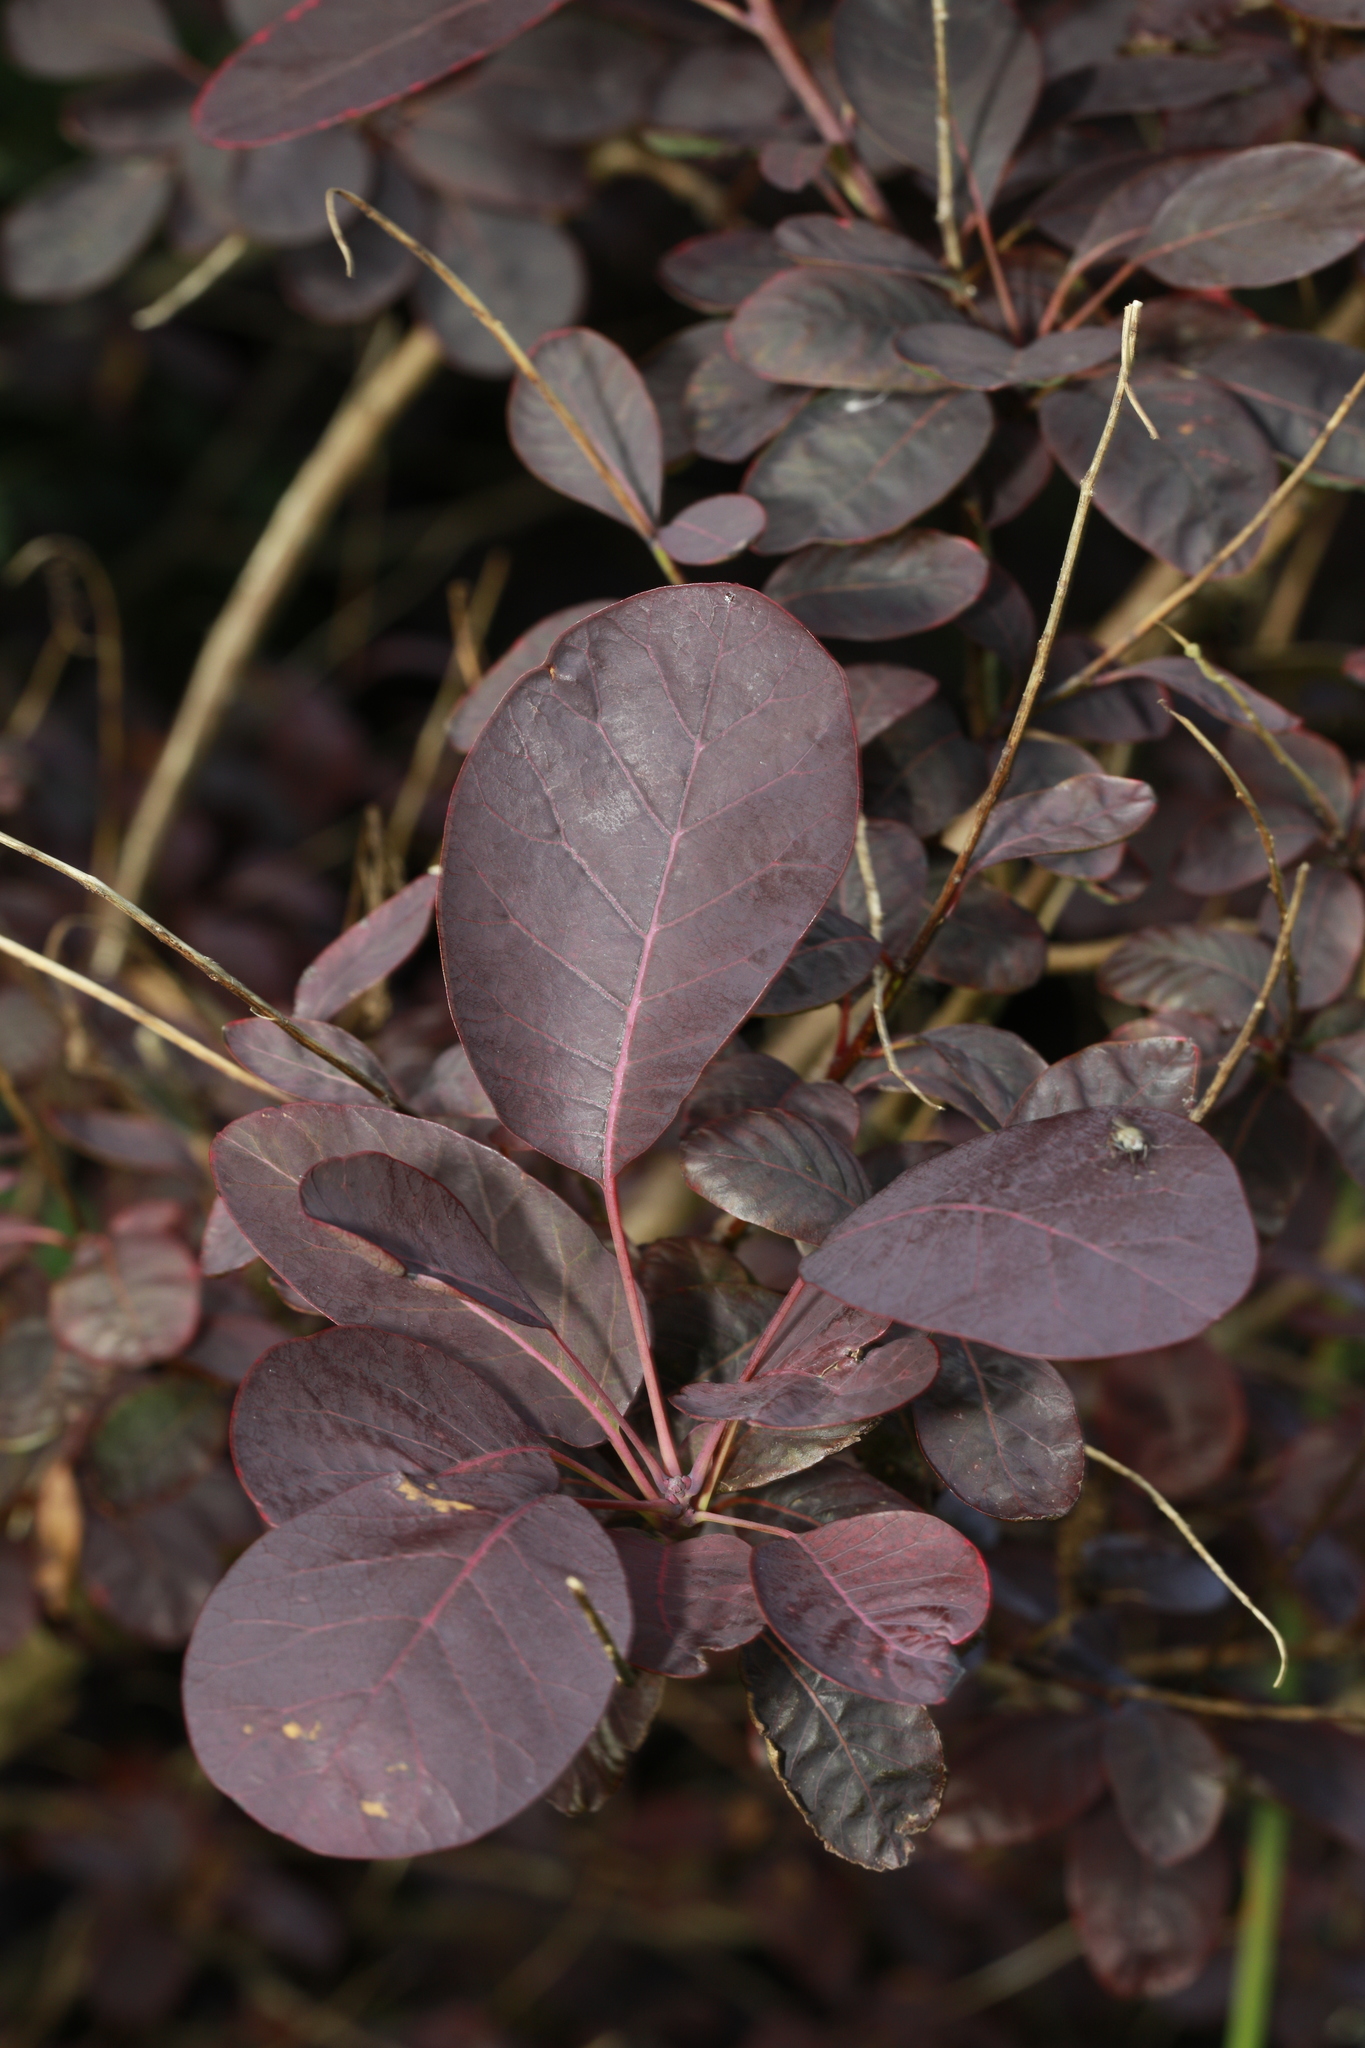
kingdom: Plantae
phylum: Tracheophyta
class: Magnoliopsida
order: Ranunculales
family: Berberidaceae
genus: Berberis
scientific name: Berberis thunbergii
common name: Japanese barberry
